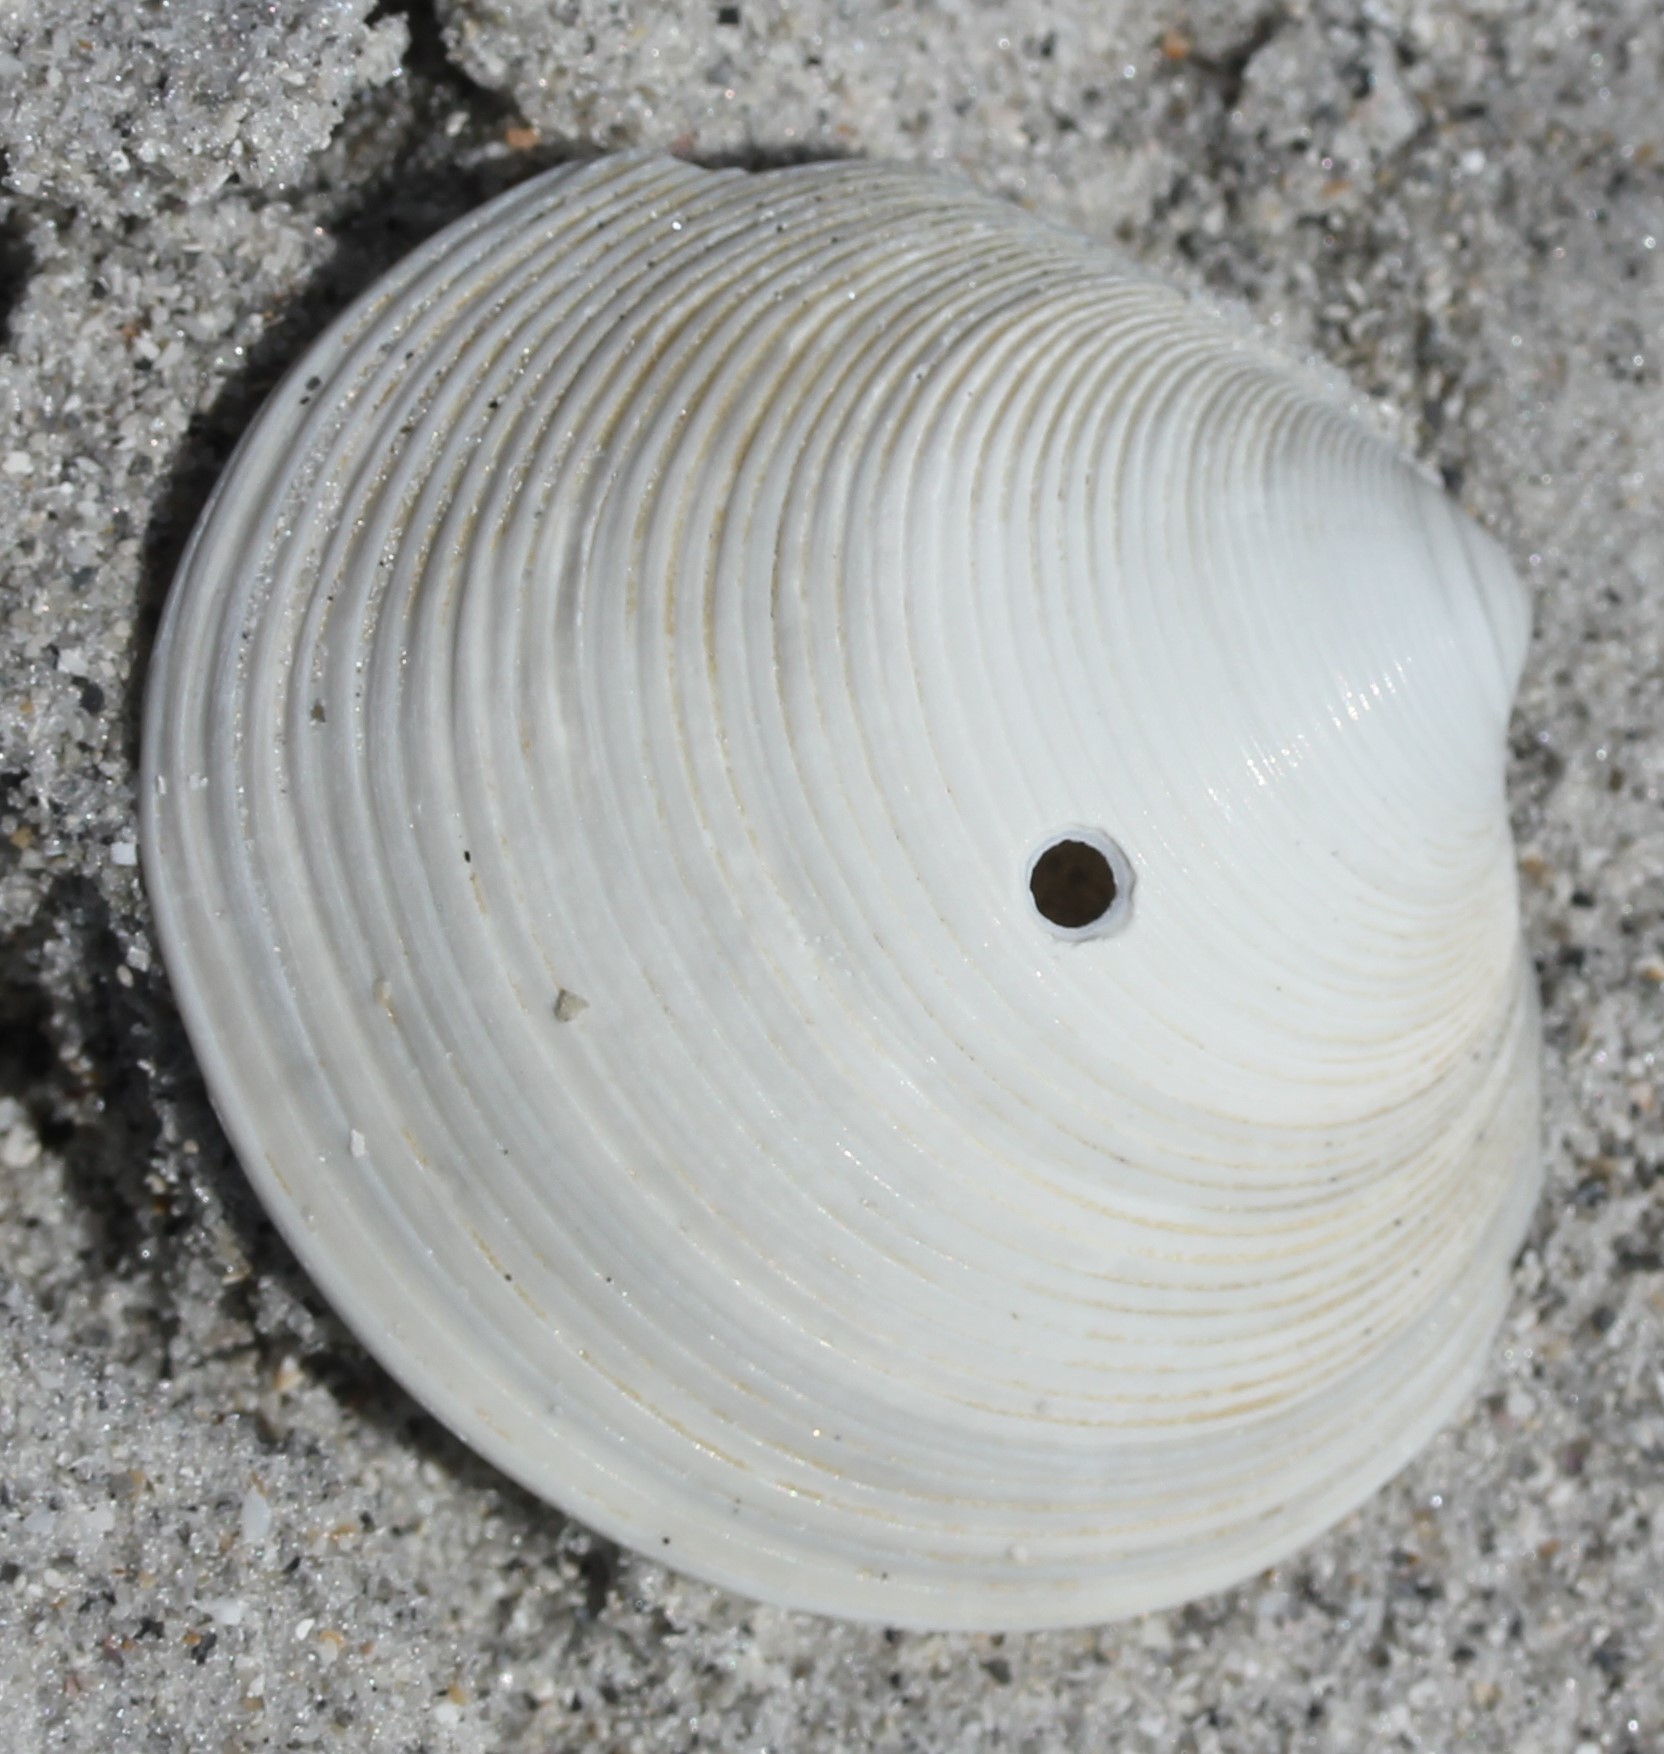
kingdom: Animalia
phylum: Mollusca
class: Bivalvia
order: Venerida
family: Veneridae
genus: Dosinia
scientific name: Dosinia concentrica
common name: Elegant dosinia
